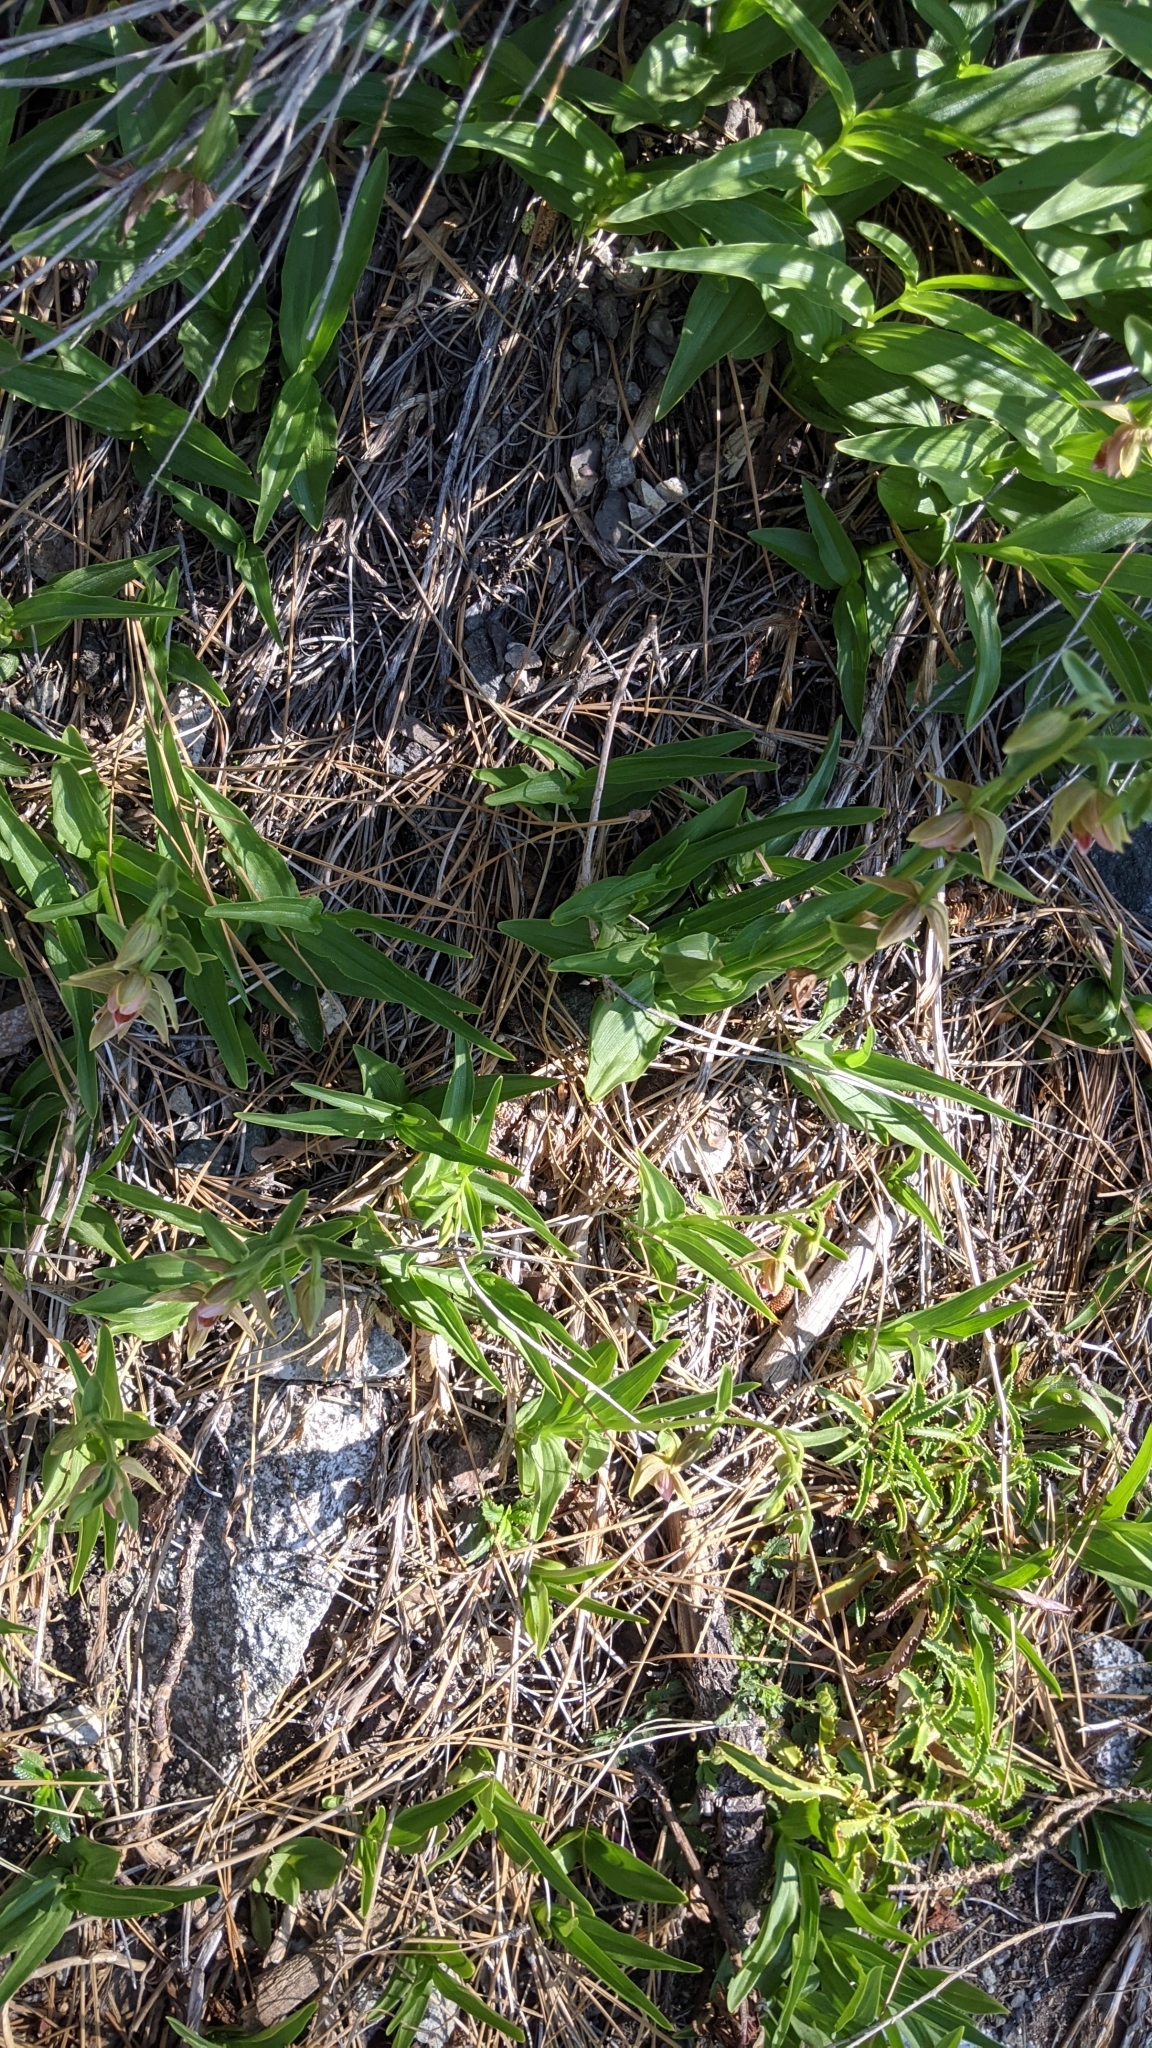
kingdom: Plantae
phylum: Tracheophyta
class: Liliopsida
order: Asparagales
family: Orchidaceae
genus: Epipactis
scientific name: Epipactis gigantea
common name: Chatterbox
